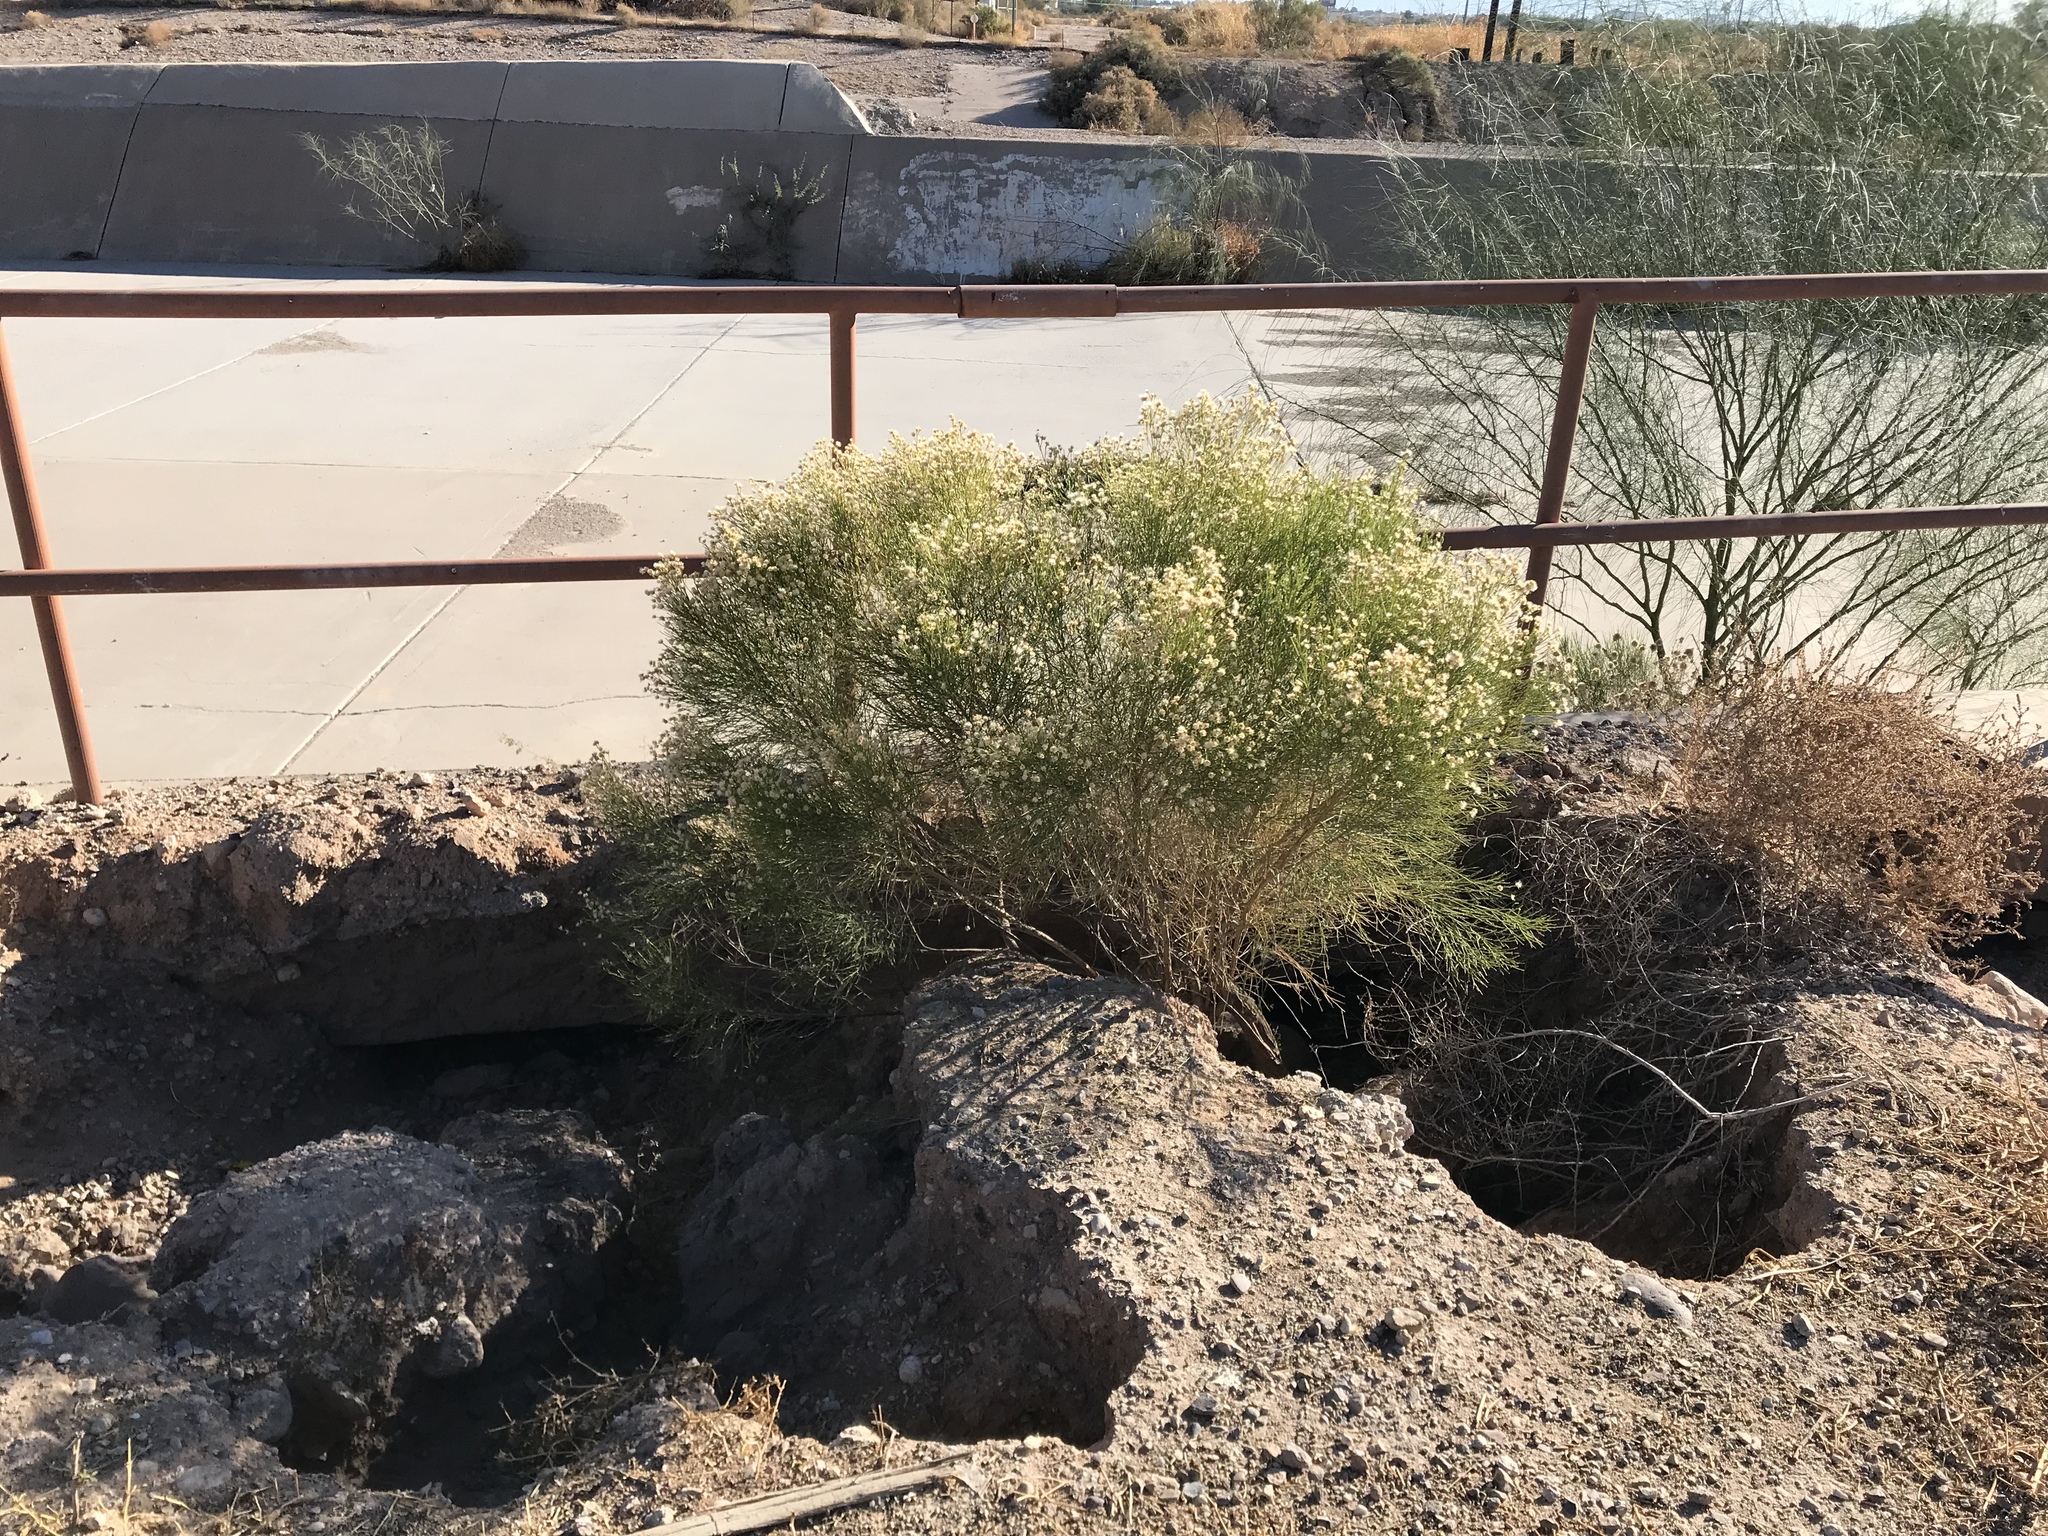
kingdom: Plantae
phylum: Tracheophyta
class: Magnoliopsida
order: Asterales
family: Asteraceae
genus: Baccharis
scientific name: Baccharis sarothroides
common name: Desert-broom
